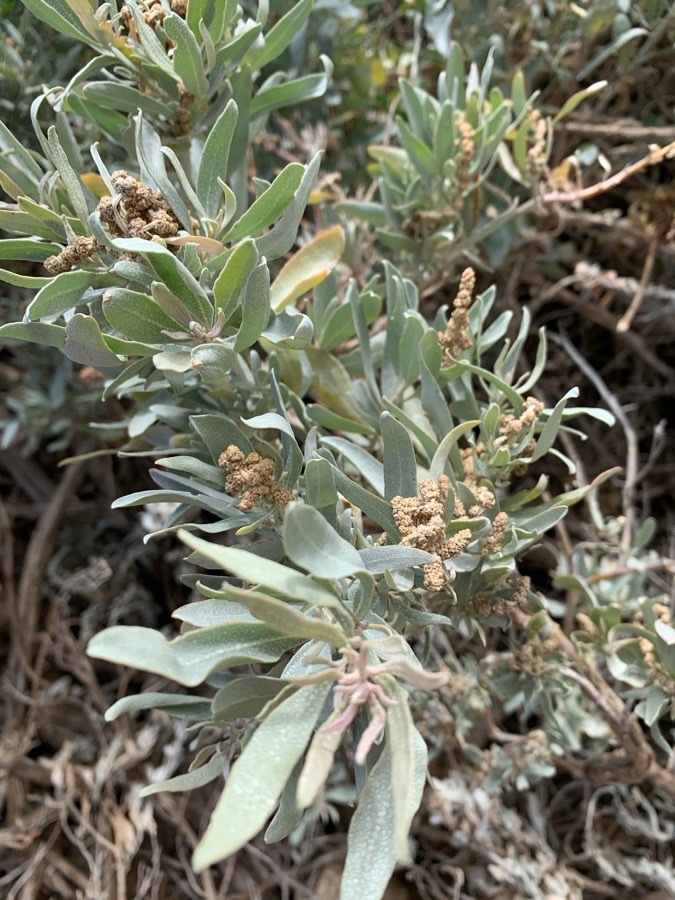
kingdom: Plantae
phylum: Tracheophyta
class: Magnoliopsida
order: Caryophyllales
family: Amaranthaceae
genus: Atriplex
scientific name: Atriplex cinerea
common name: Grey saltbush
